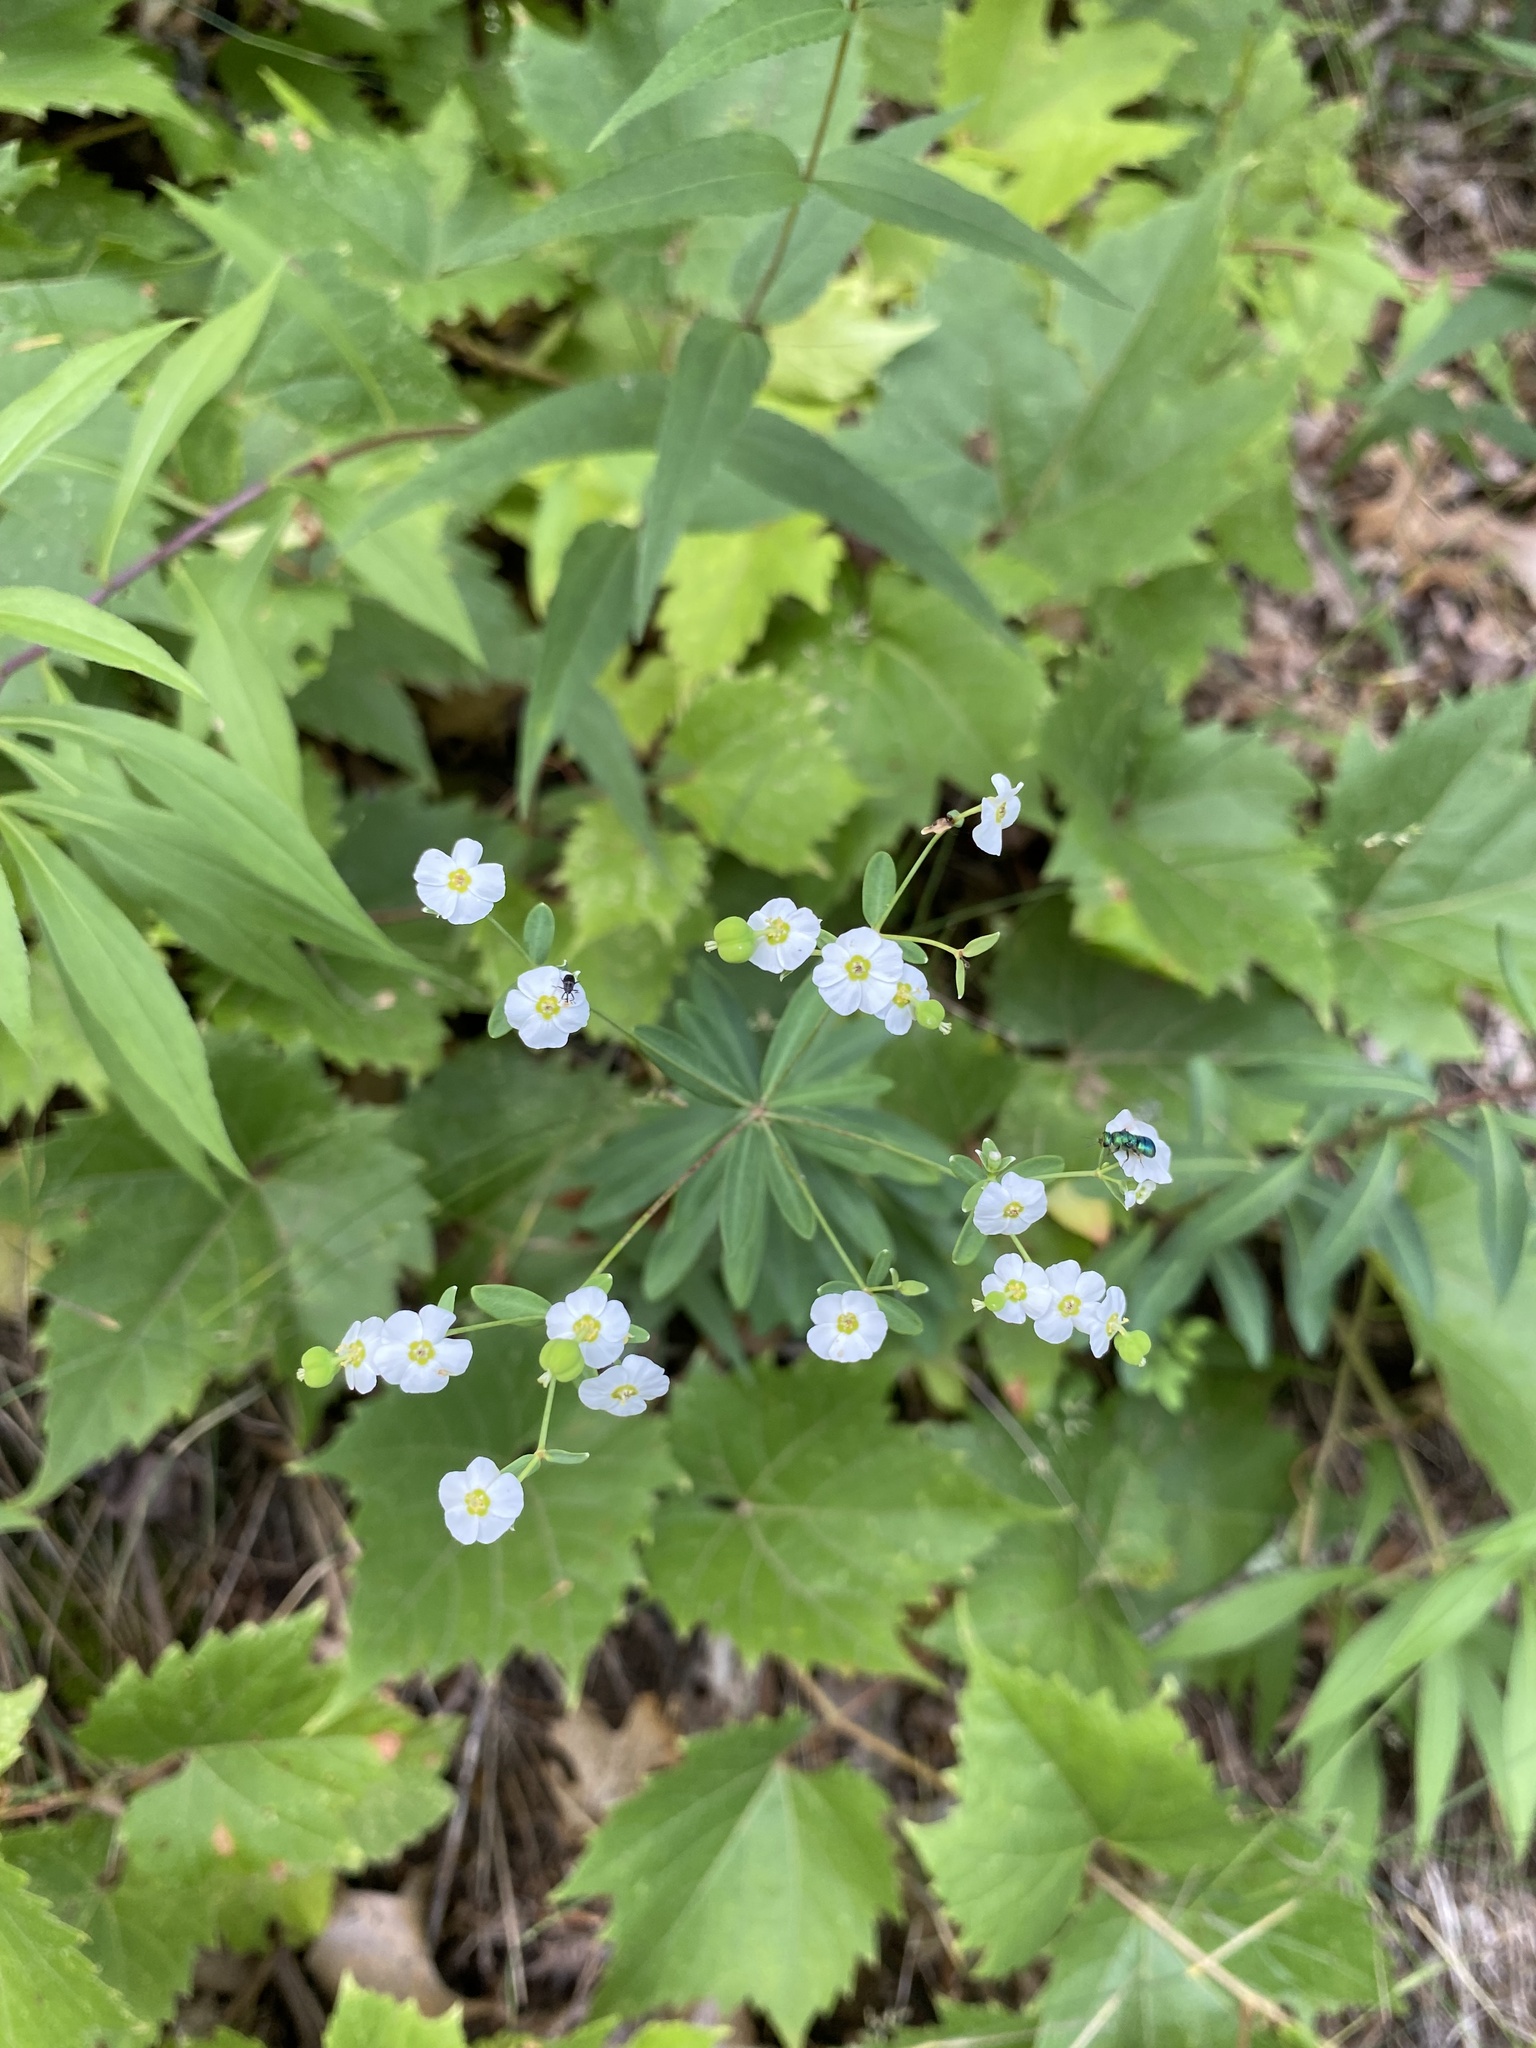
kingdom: Plantae
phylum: Tracheophyta
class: Magnoliopsida
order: Malpighiales
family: Euphorbiaceae
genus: Euphorbia
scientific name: Euphorbia corollata
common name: Flowering spurge
